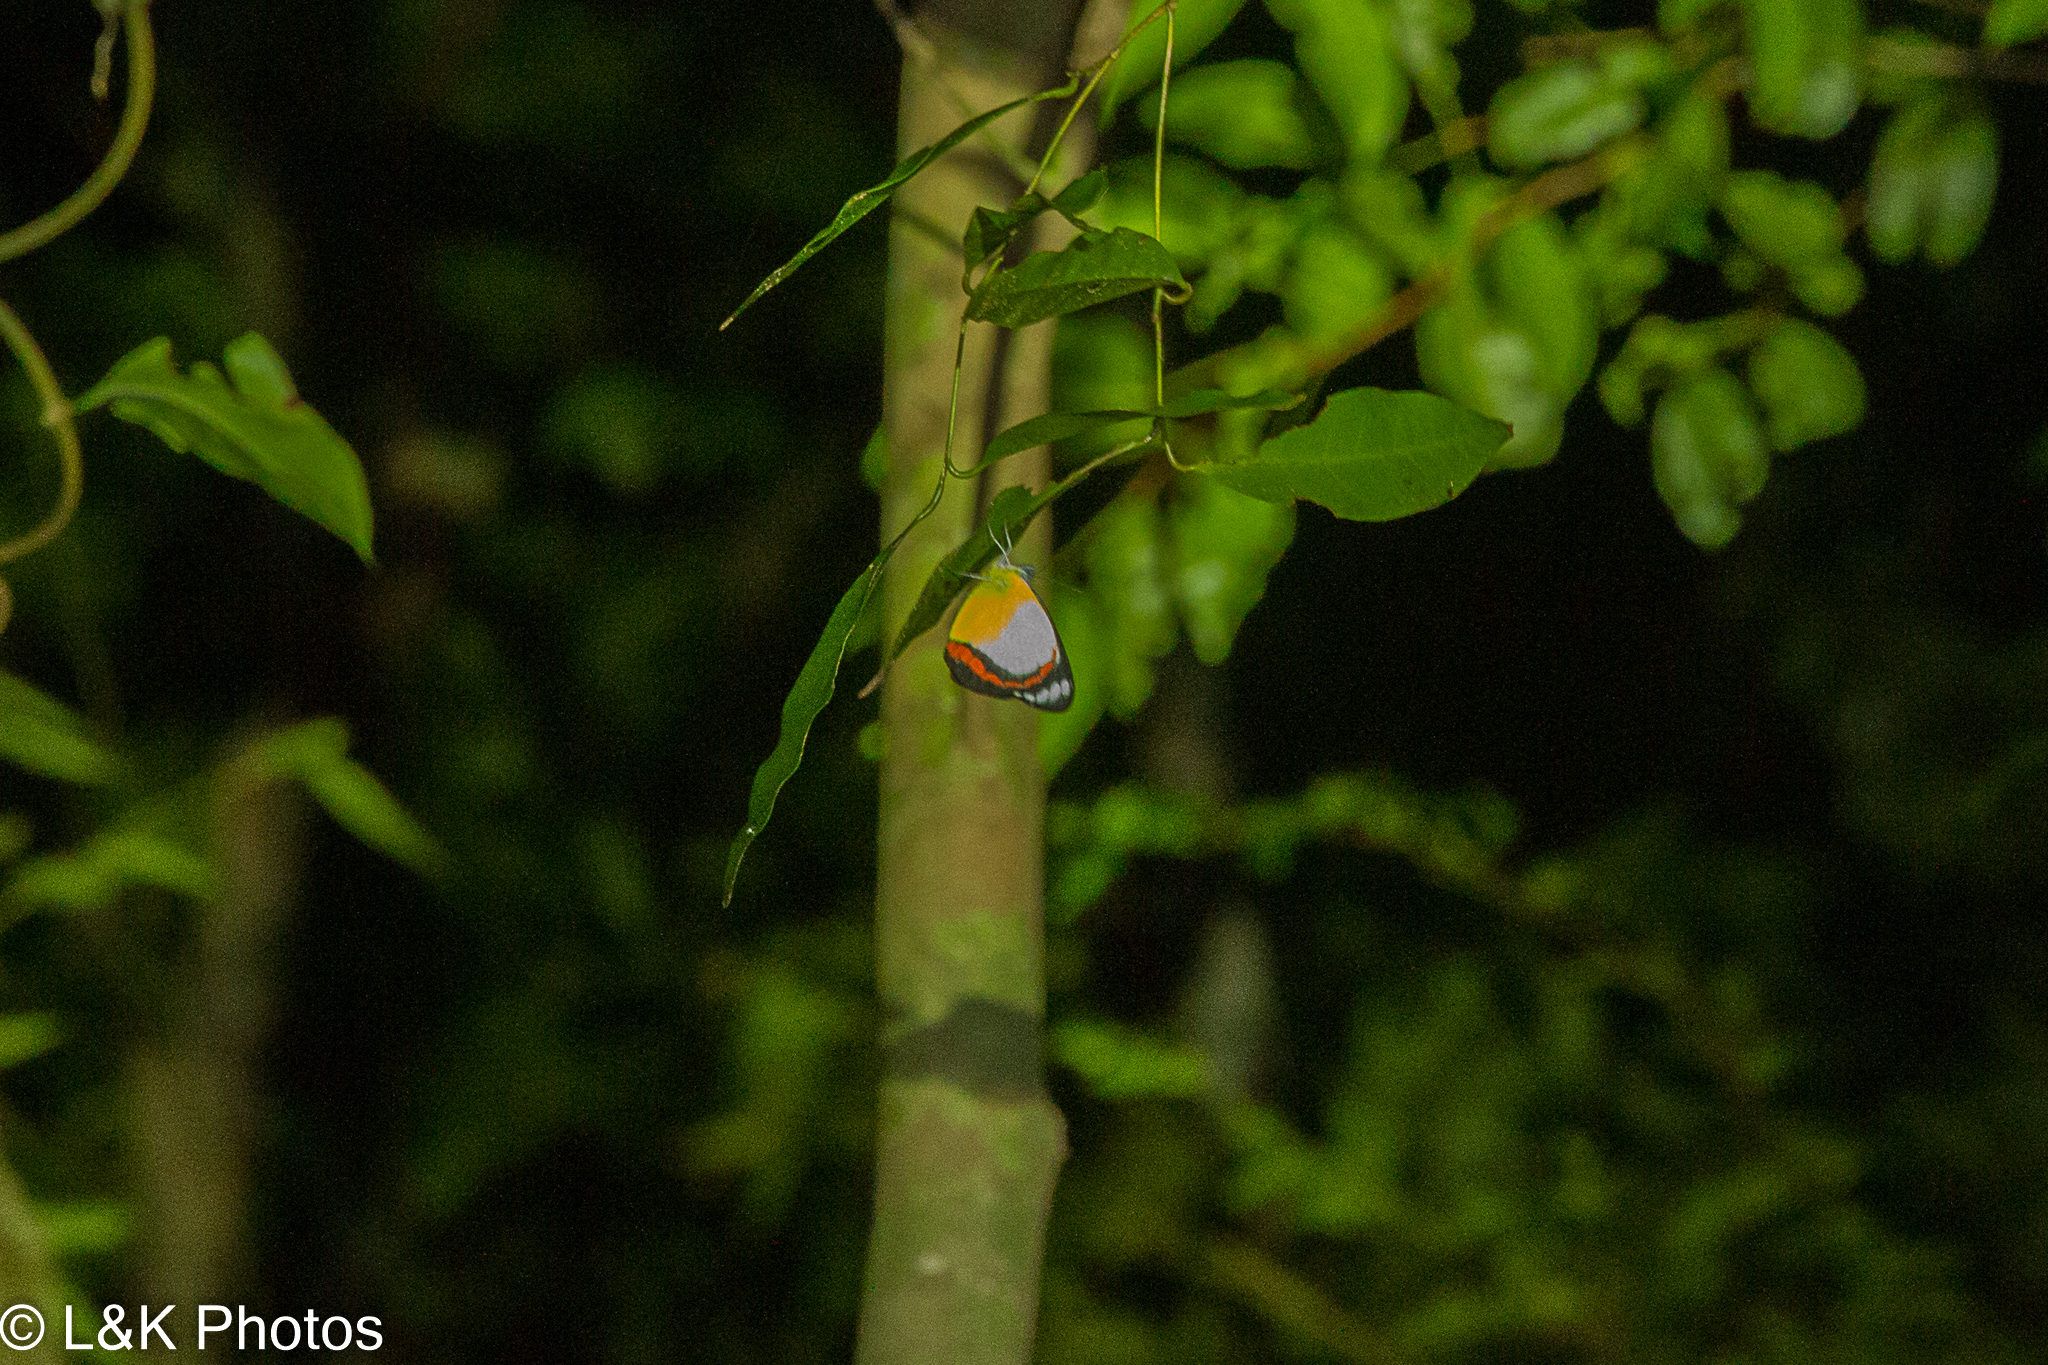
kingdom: Animalia
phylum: Arthropoda
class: Insecta
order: Lepidoptera
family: Pieridae
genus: Delias
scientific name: Delias mysis
